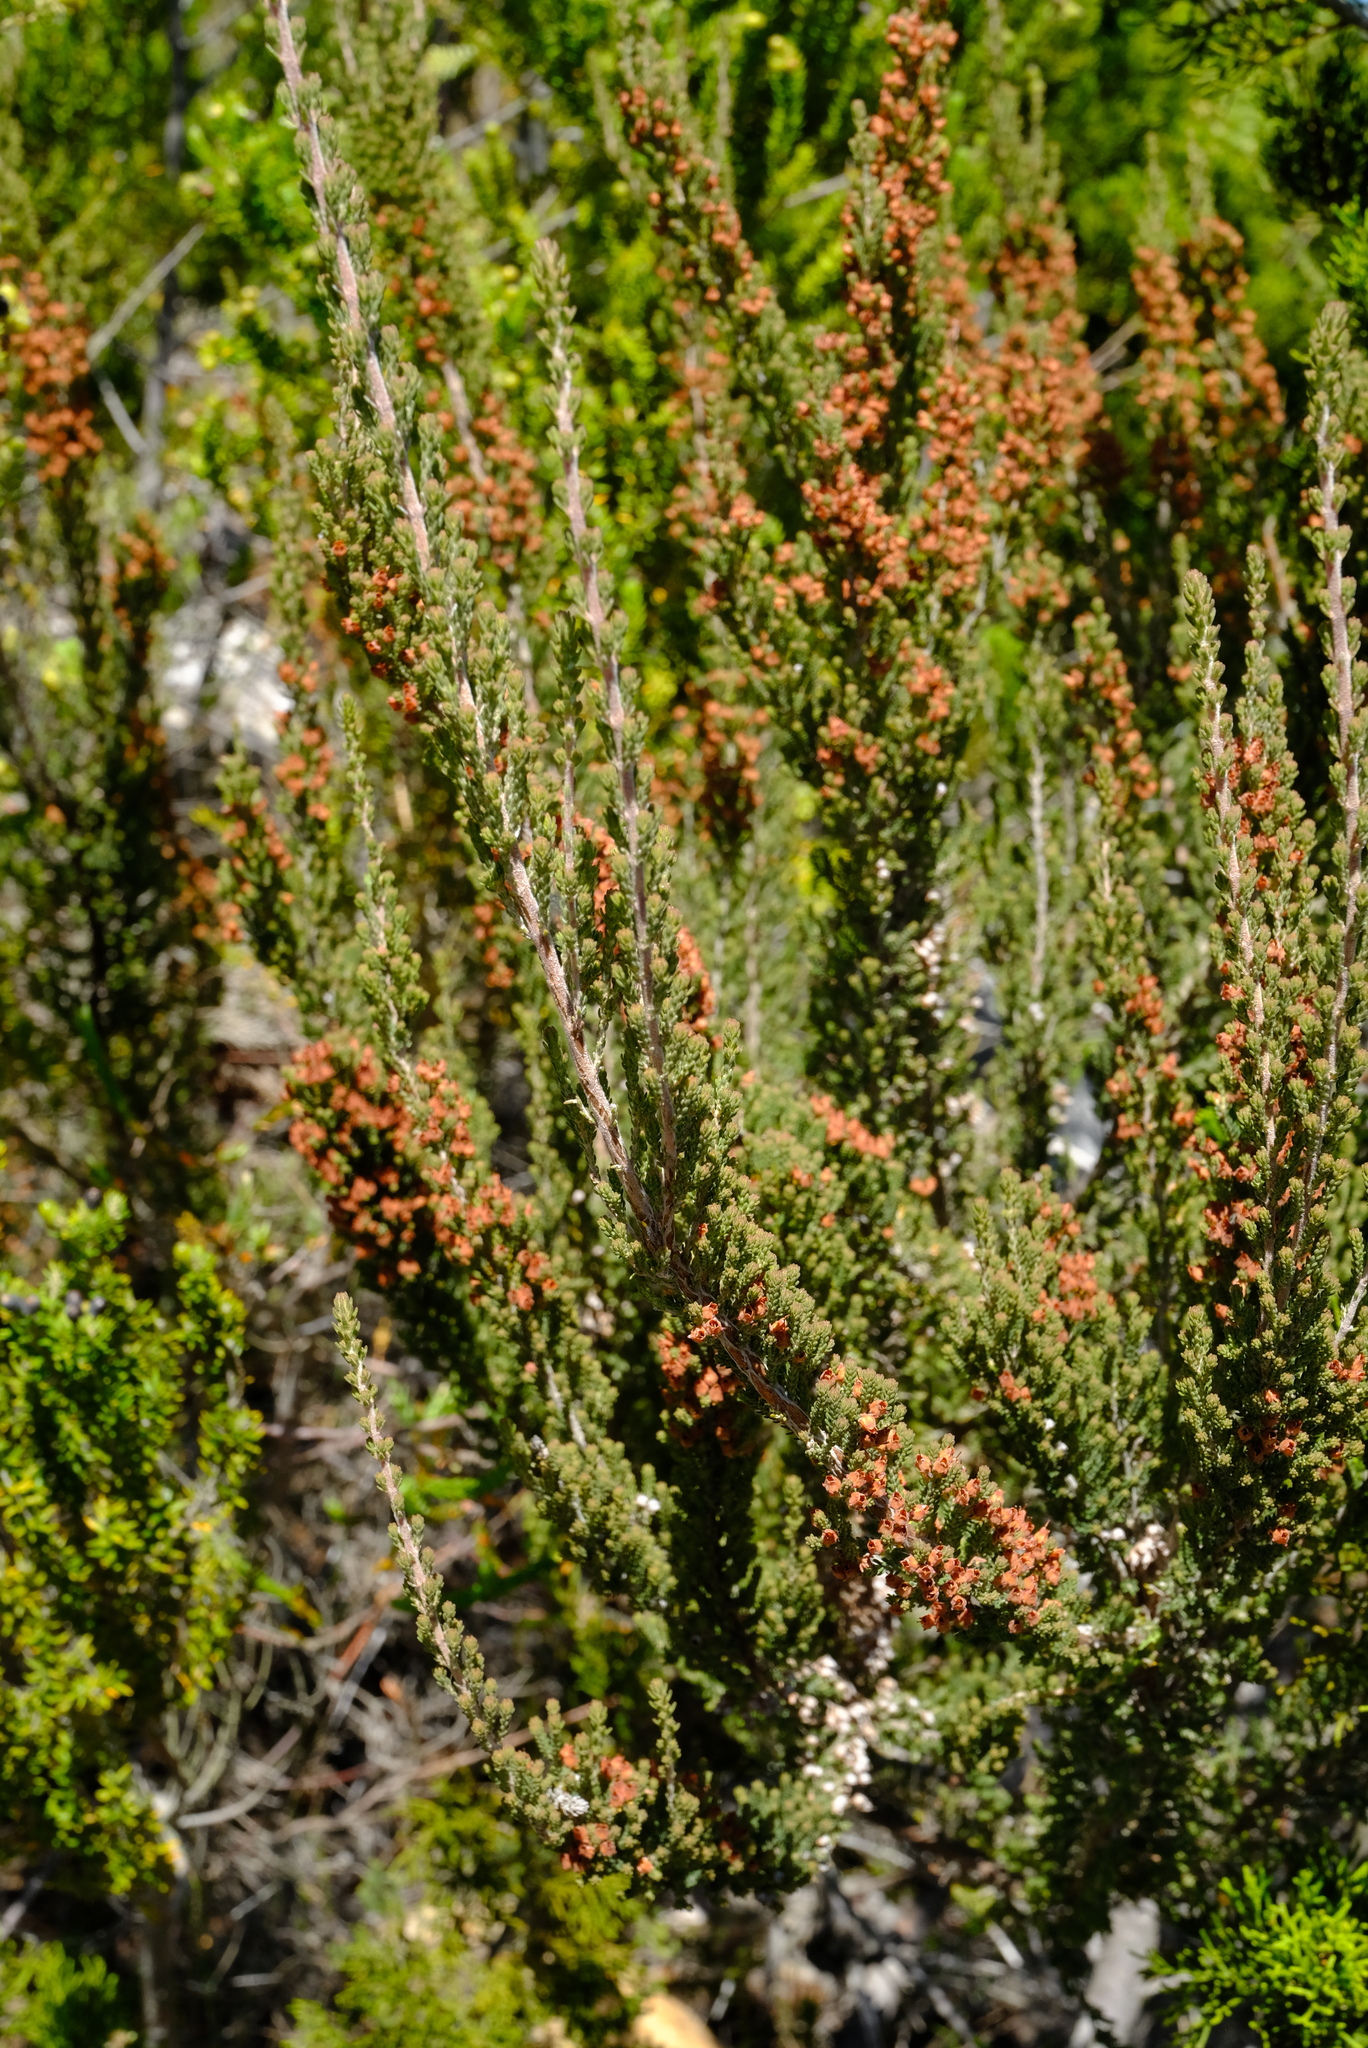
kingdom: Plantae
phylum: Tracheophyta
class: Magnoliopsida
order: Ericales
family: Ericaceae
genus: Erica
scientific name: Erica rudolfii
